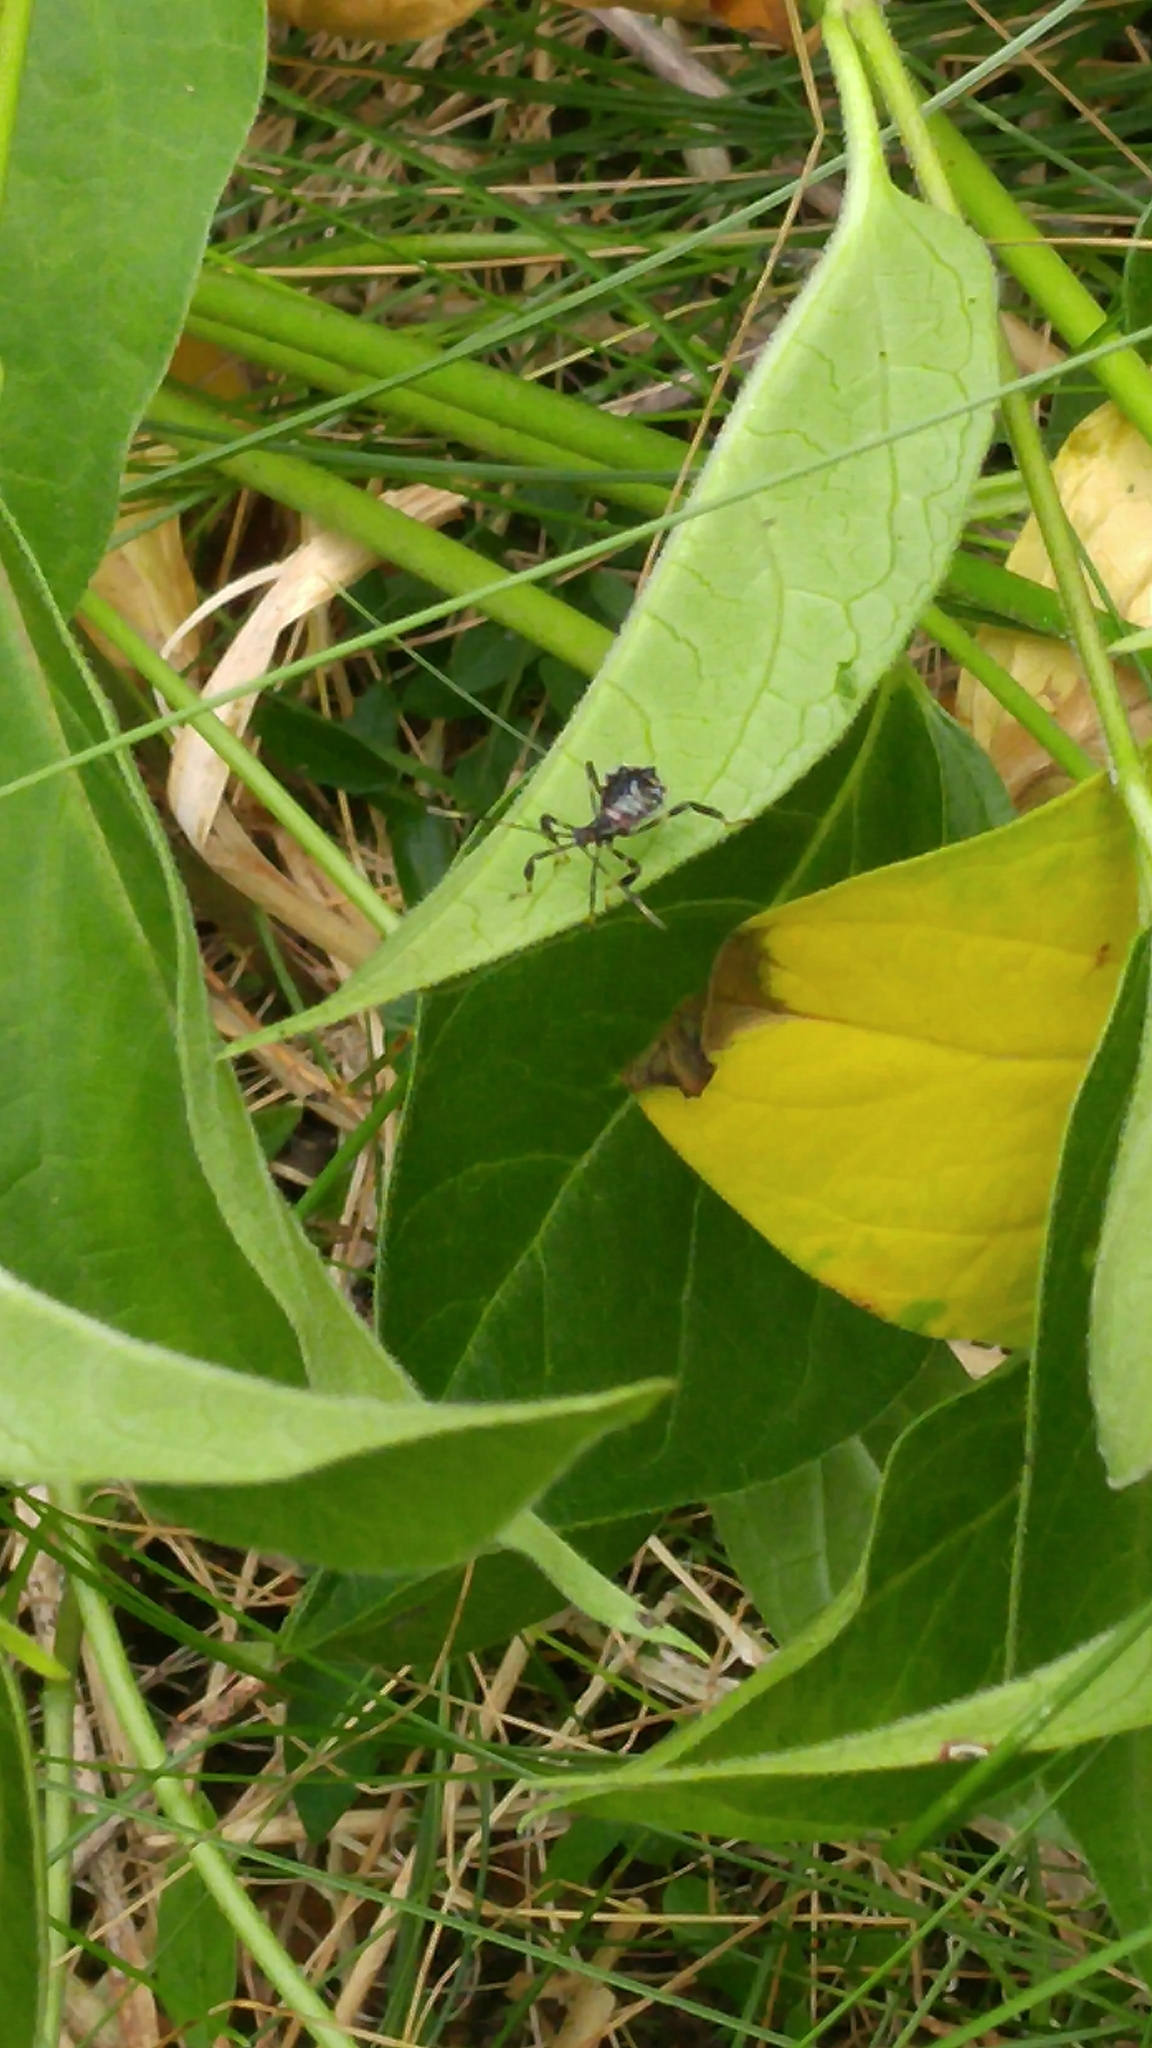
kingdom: Animalia
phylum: Arthropoda
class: Insecta
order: Hemiptera
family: Coreidae
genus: Acanthocephala
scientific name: Acanthocephala terminalis
